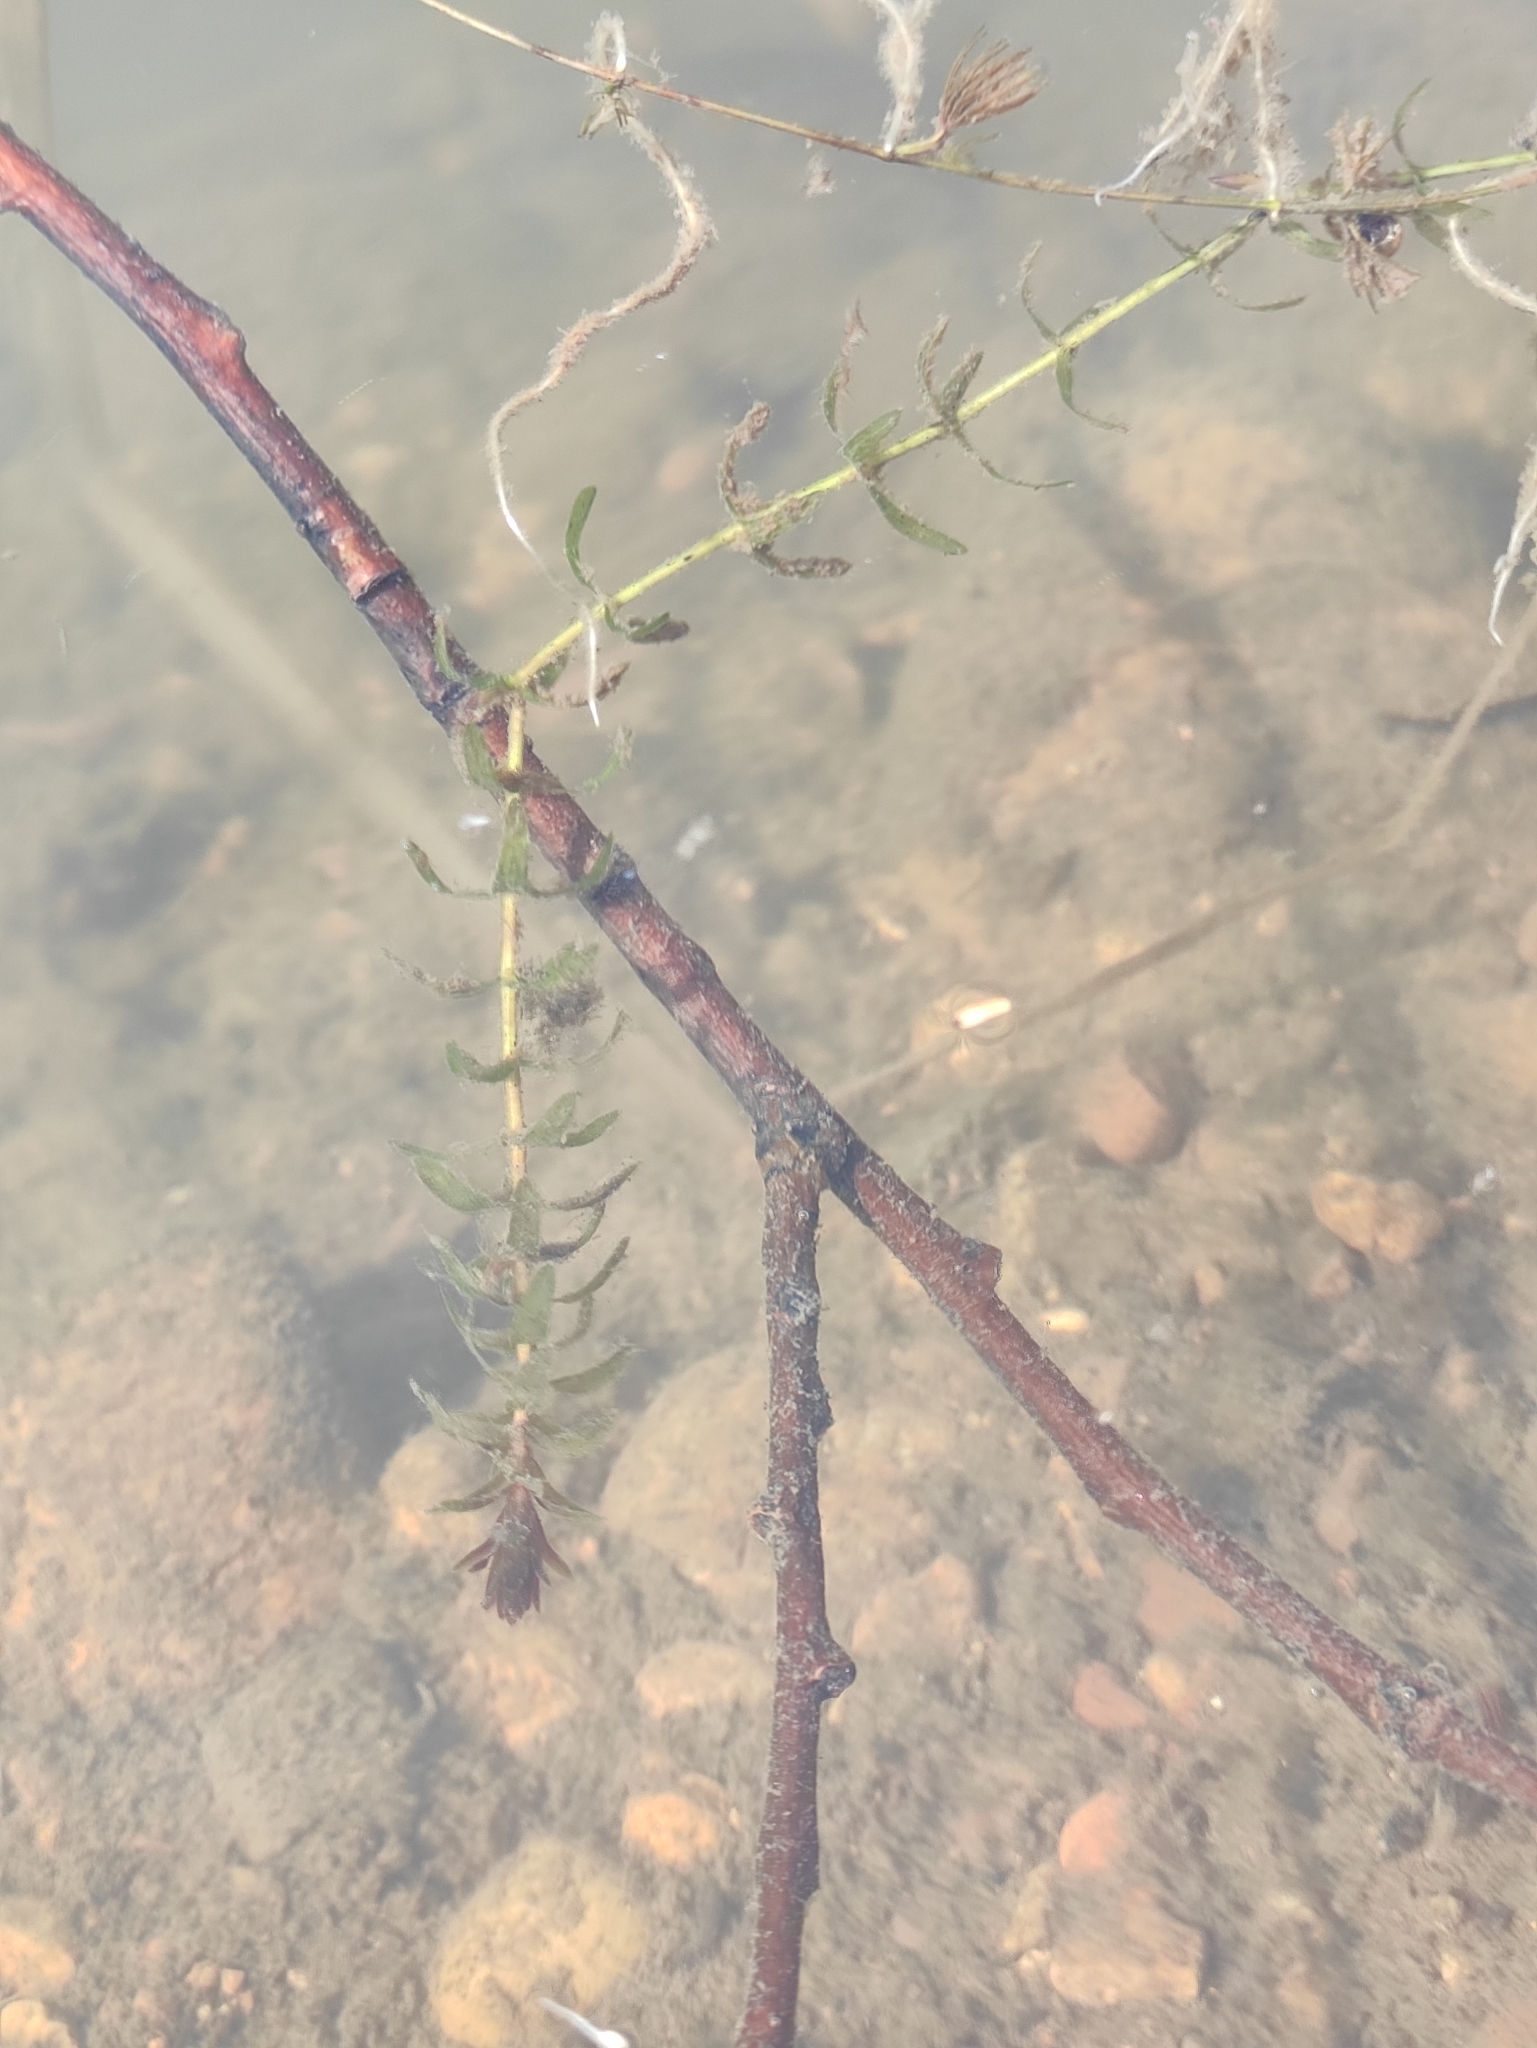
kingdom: Plantae
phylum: Tracheophyta
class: Liliopsida
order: Alismatales
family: Hydrocharitaceae
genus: Elodea
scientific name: Elodea canadensis
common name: Canadian waterweed
